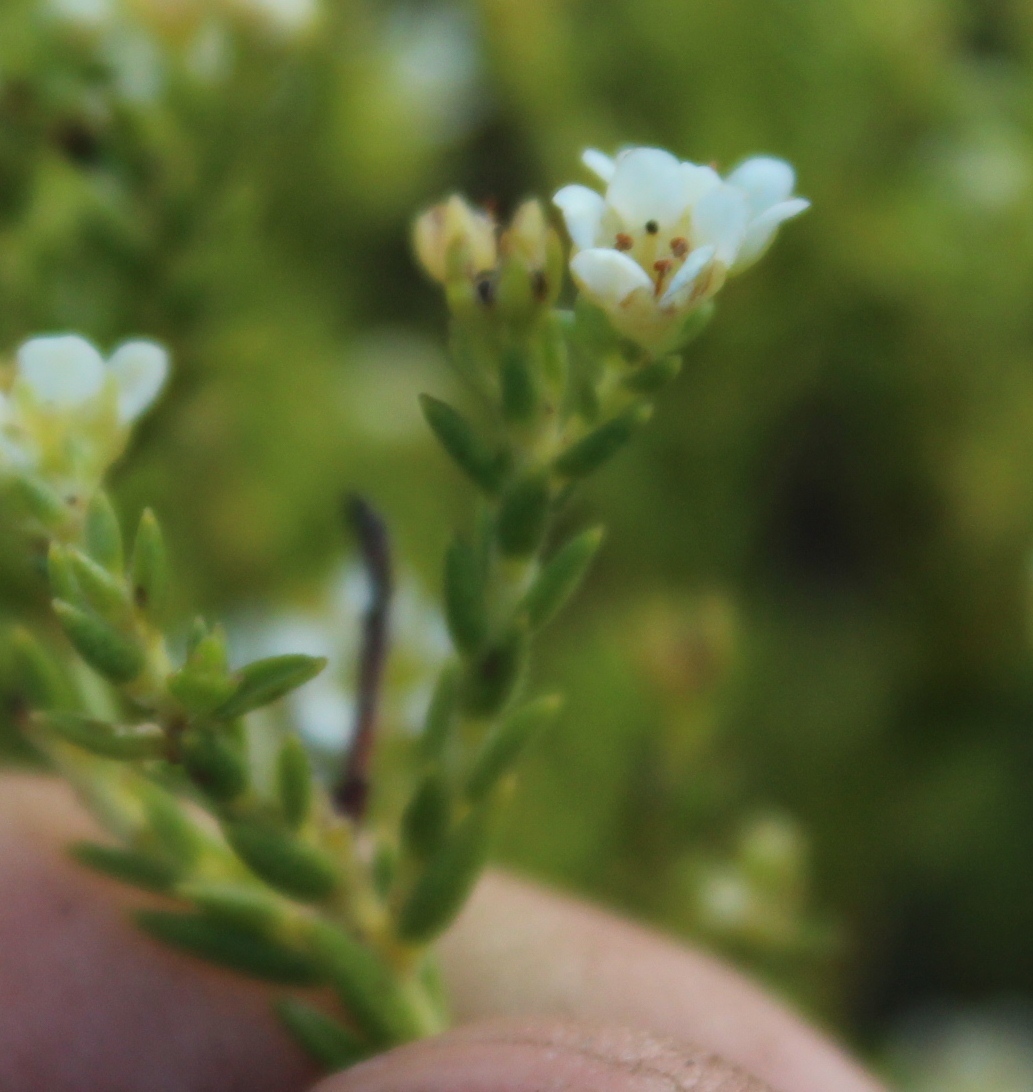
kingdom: Plantae
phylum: Tracheophyta
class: Magnoliopsida
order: Sapindales
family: Rutaceae
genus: Diosma
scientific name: Diosma oppositifolia
